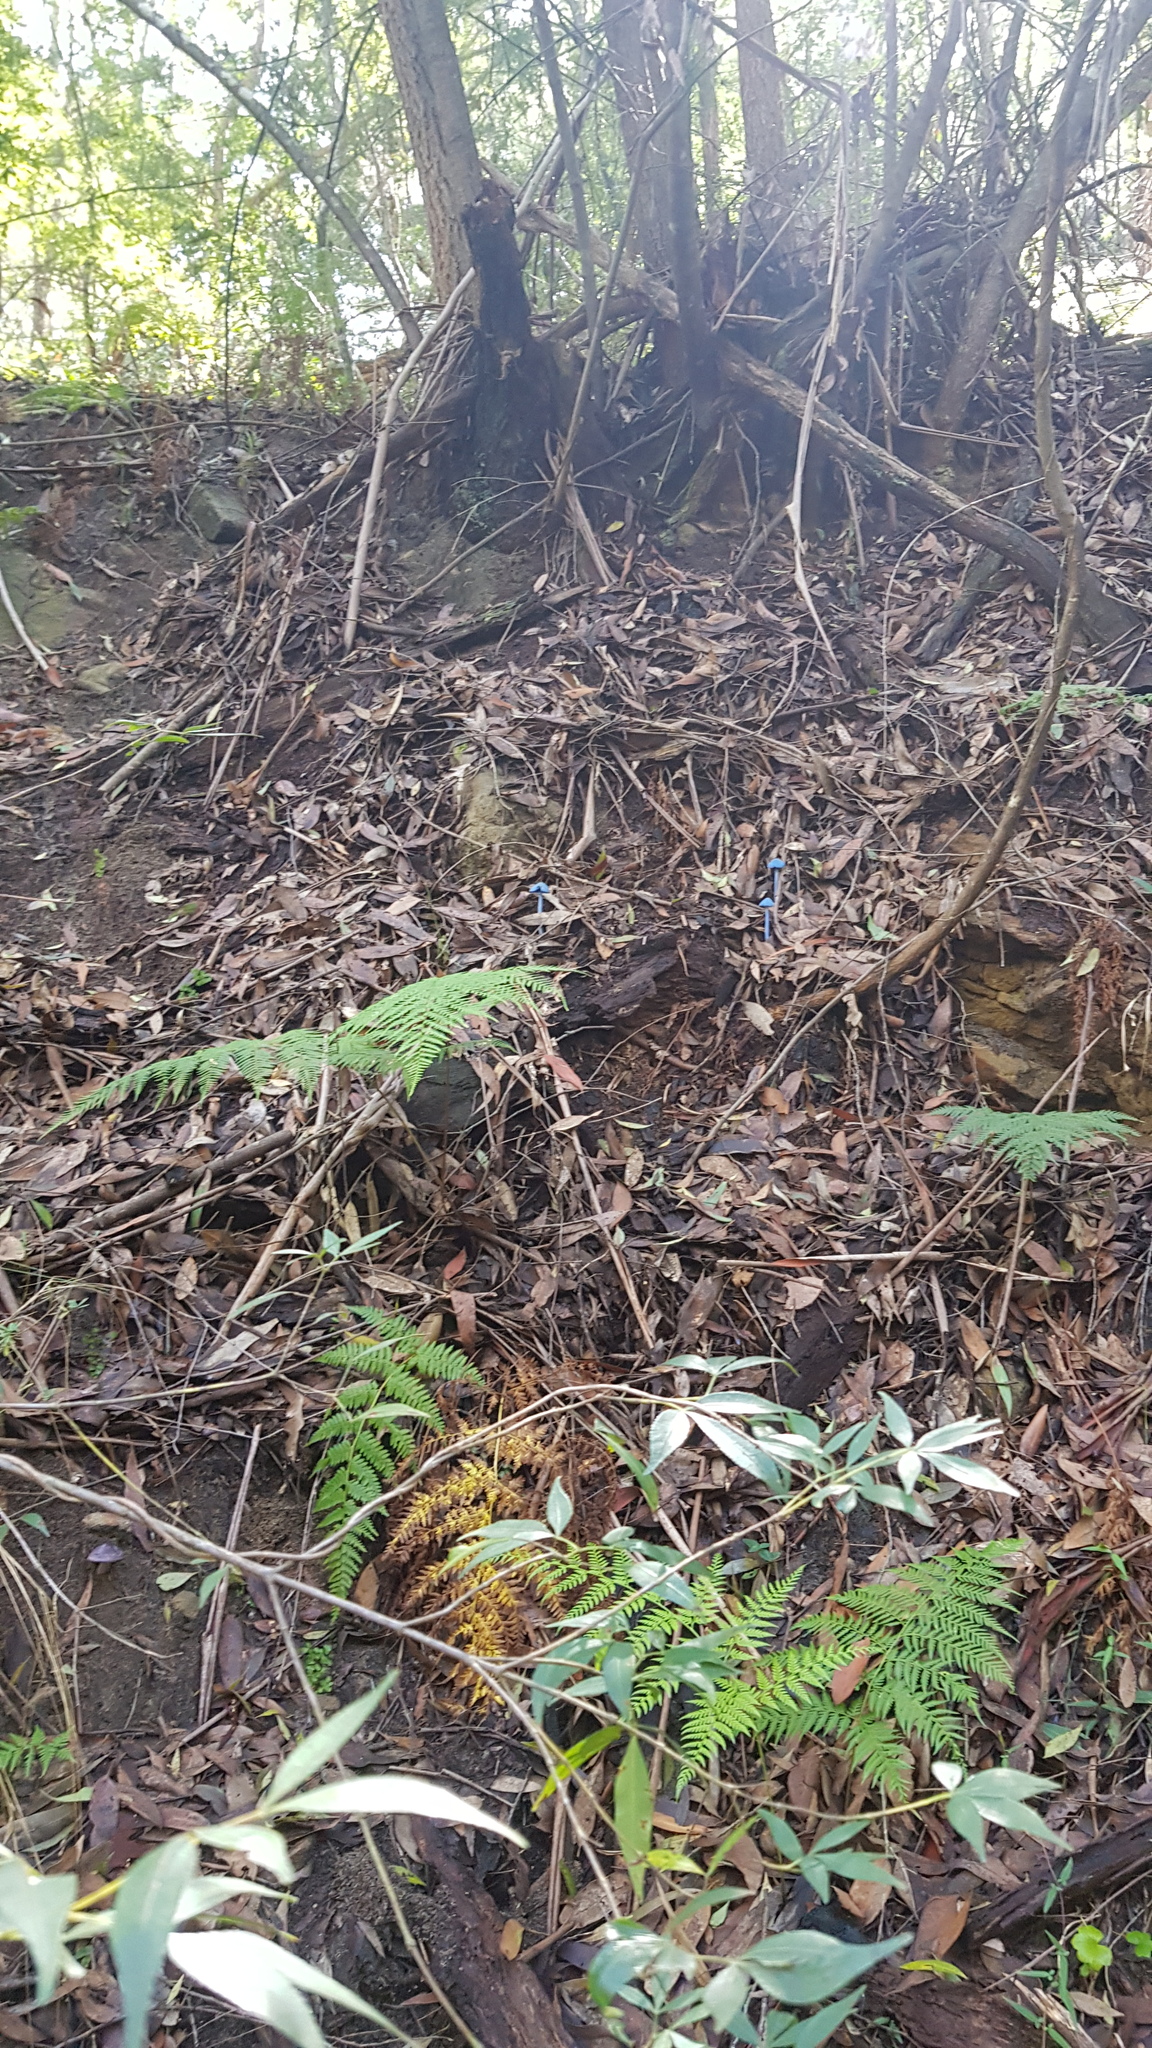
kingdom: Fungi
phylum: Basidiomycota
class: Agaricomycetes
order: Agaricales
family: Entolomataceae
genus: Entoloma
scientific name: Entoloma virescens
